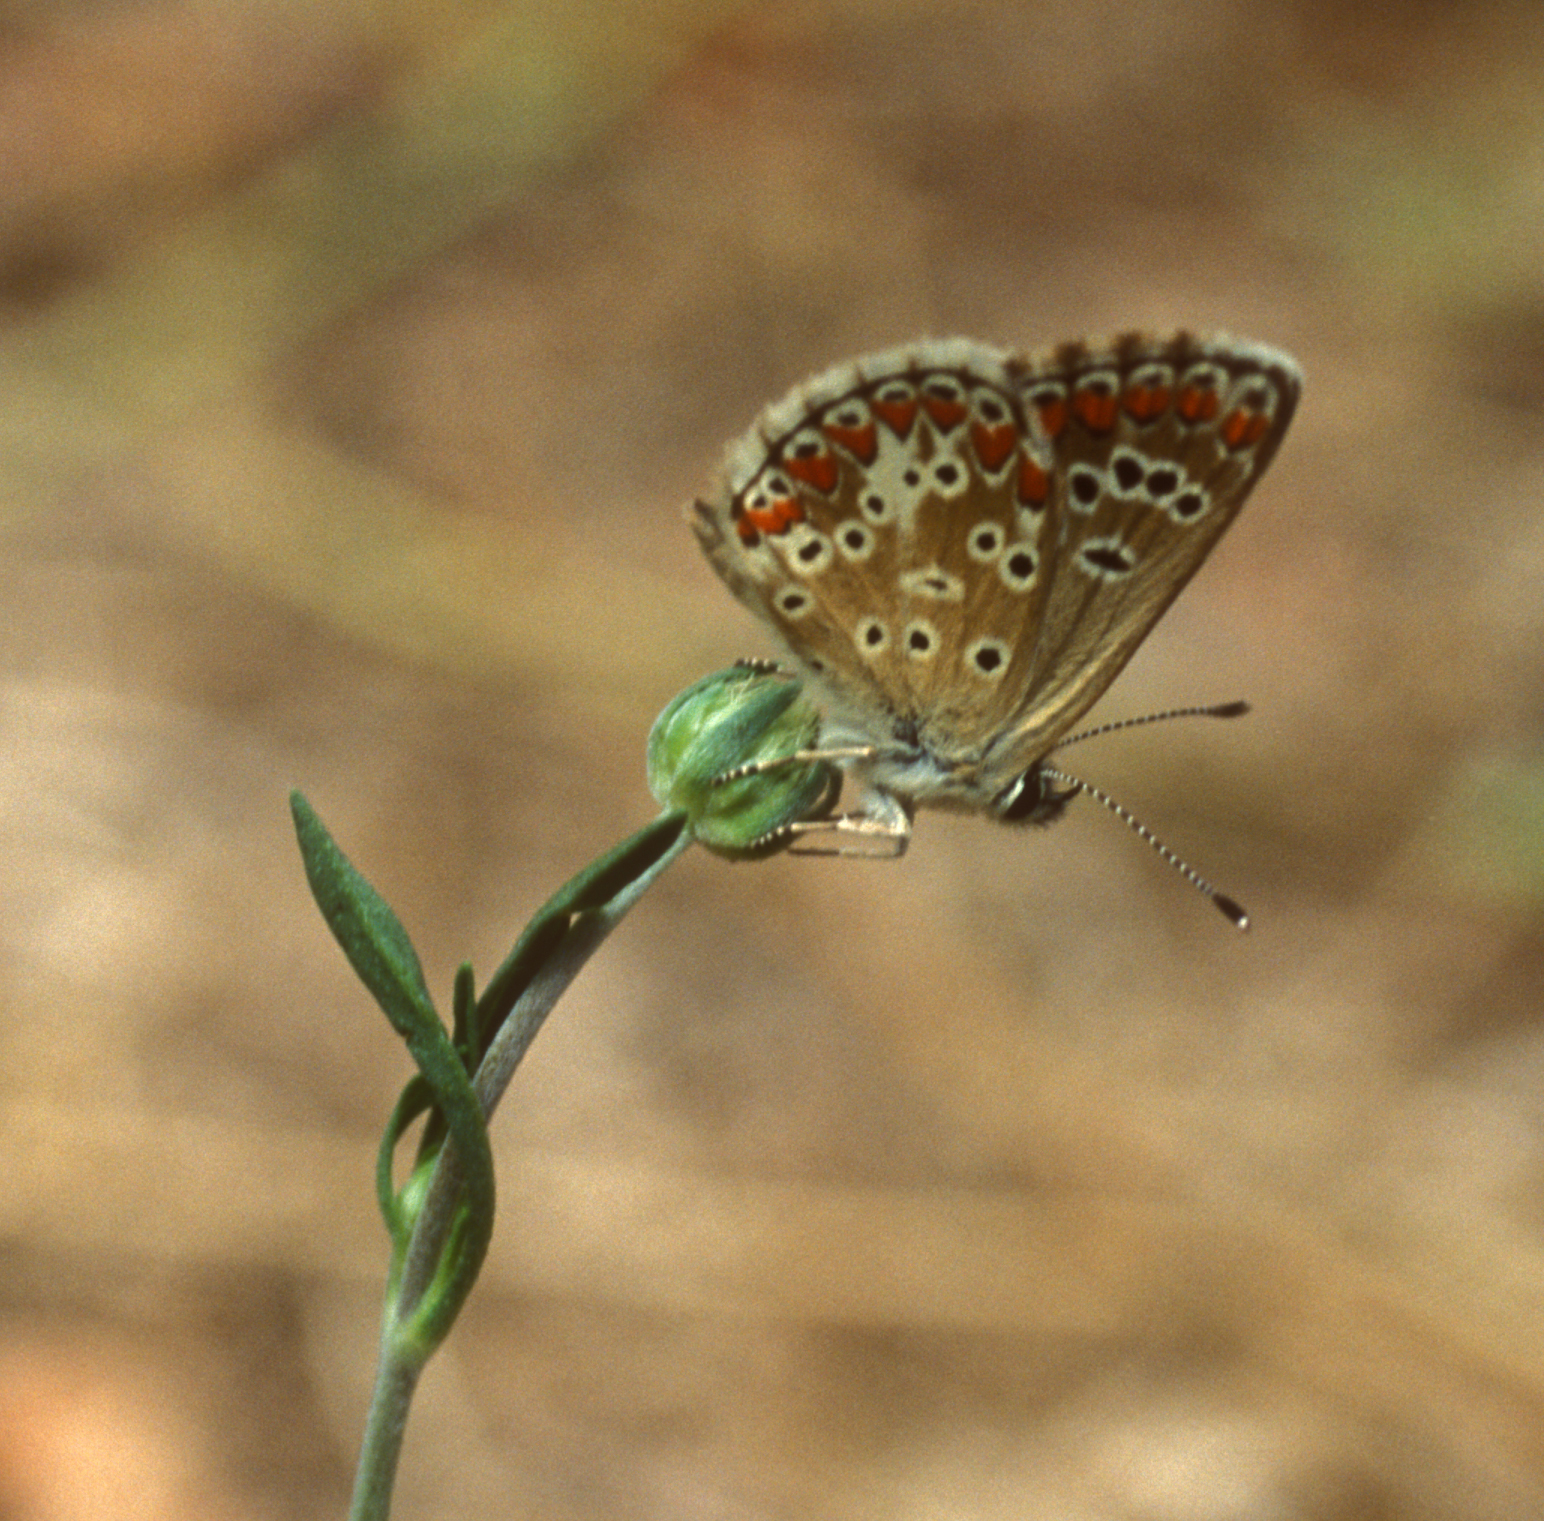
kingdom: Animalia
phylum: Arthropoda
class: Insecta
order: Lepidoptera
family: Lycaenidae
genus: Aricia
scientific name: Aricia agestis
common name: Brown argus
